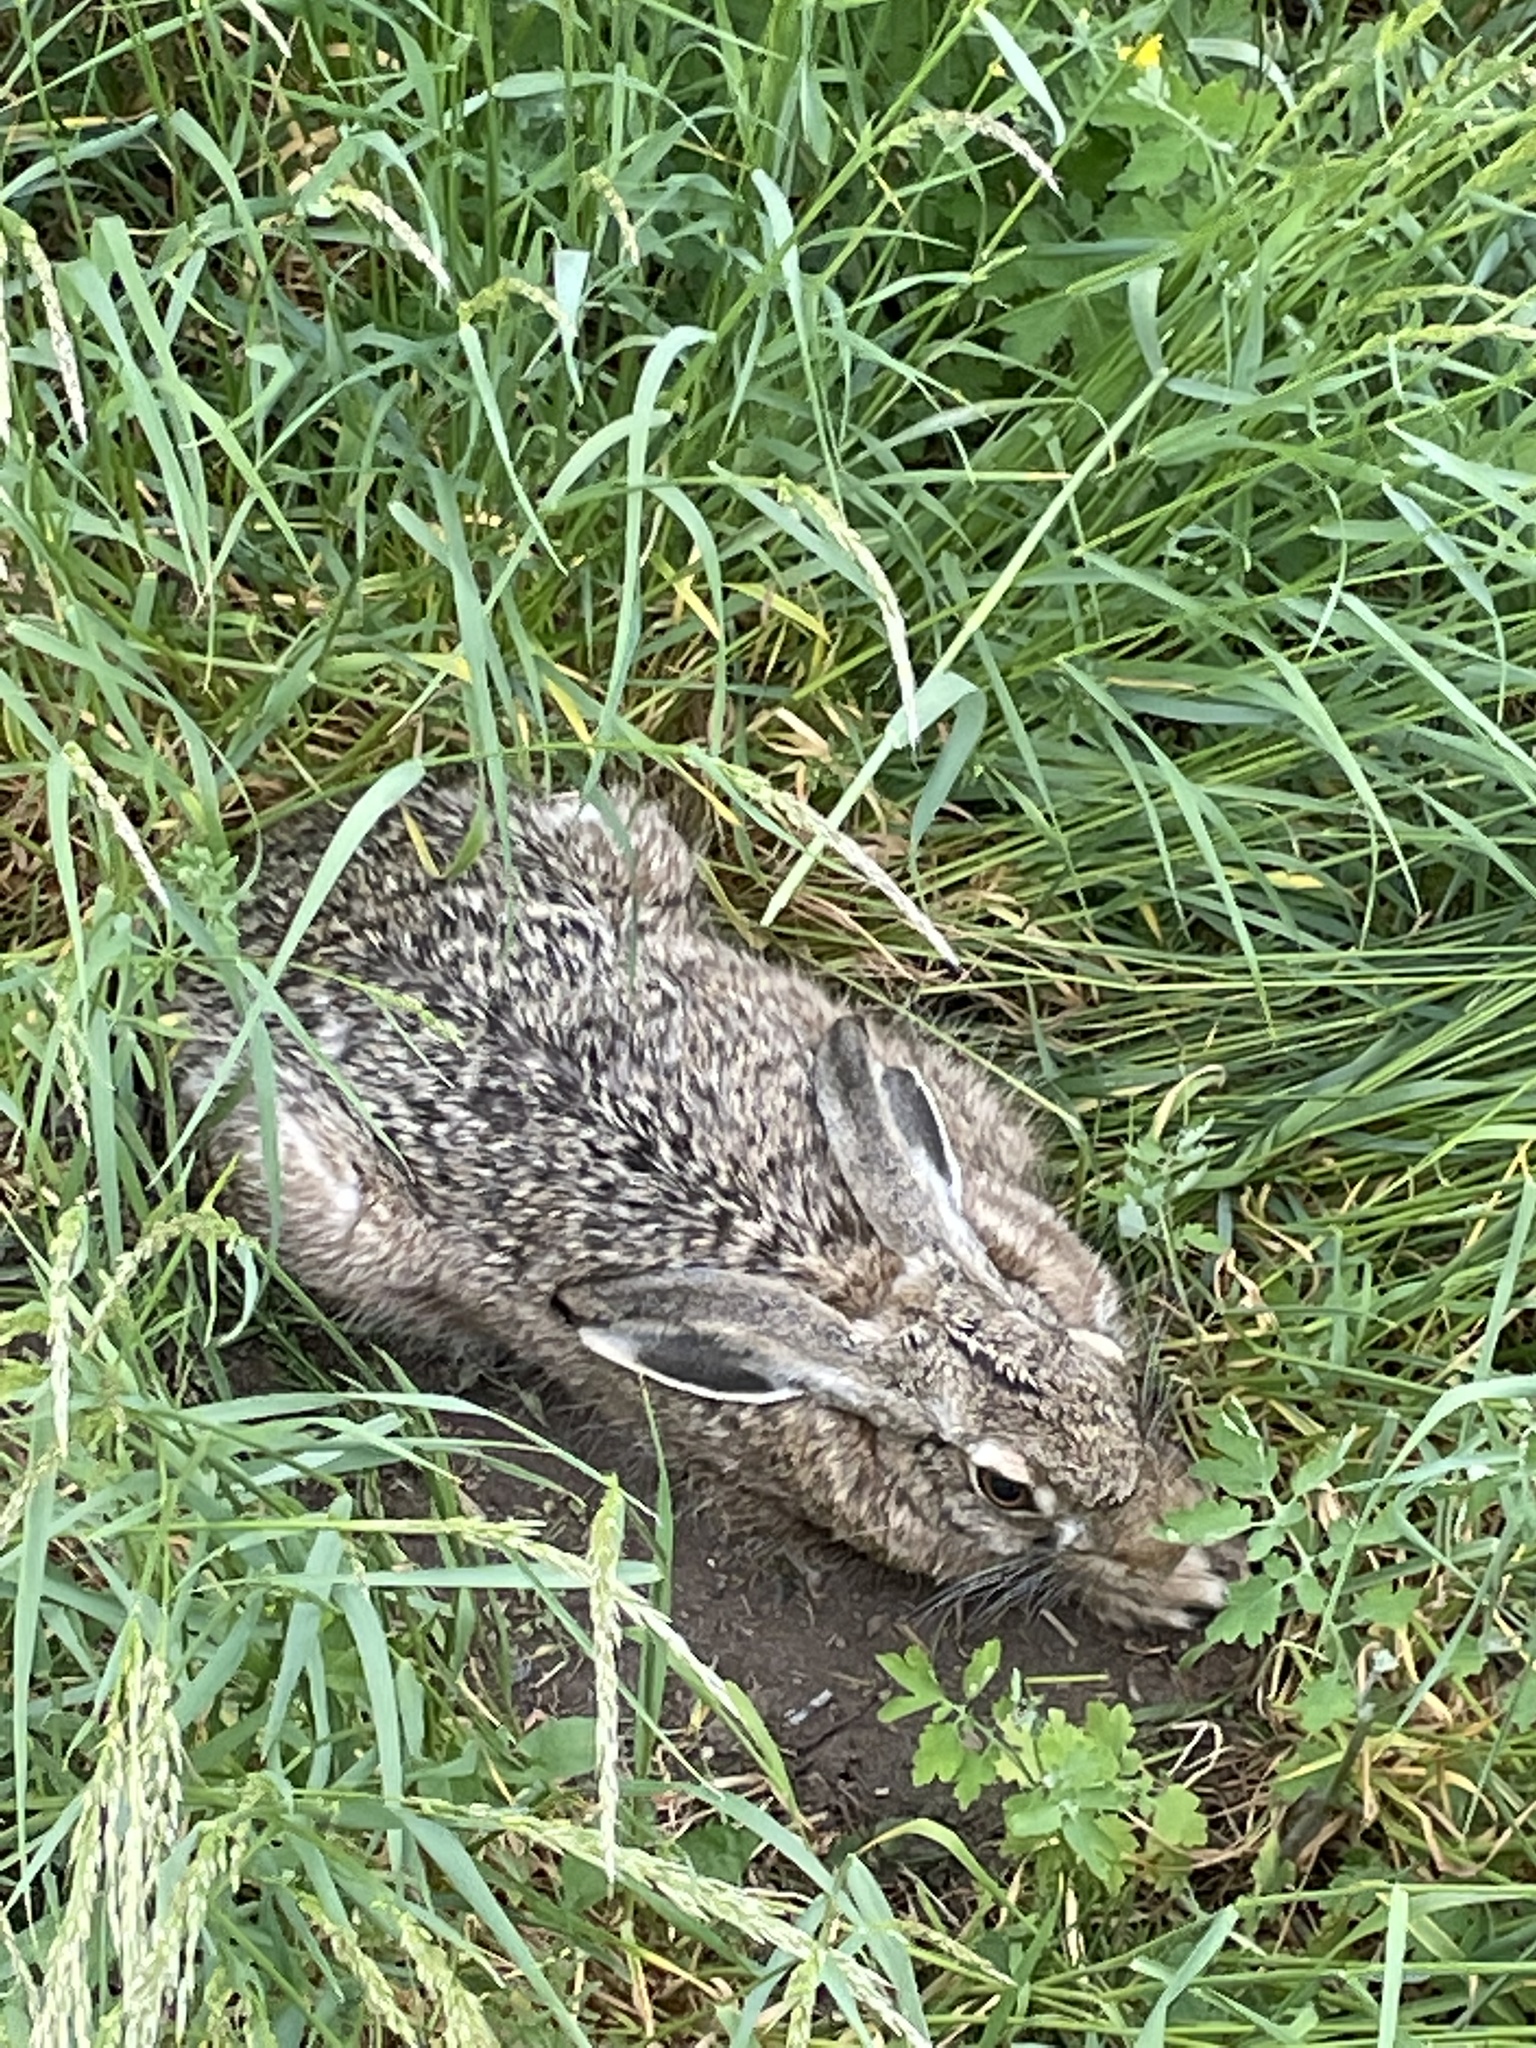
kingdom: Animalia
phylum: Chordata
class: Mammalia
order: Lagomorpha
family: Leporidae
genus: Lepus
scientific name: Lepus europaeus
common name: European hare
